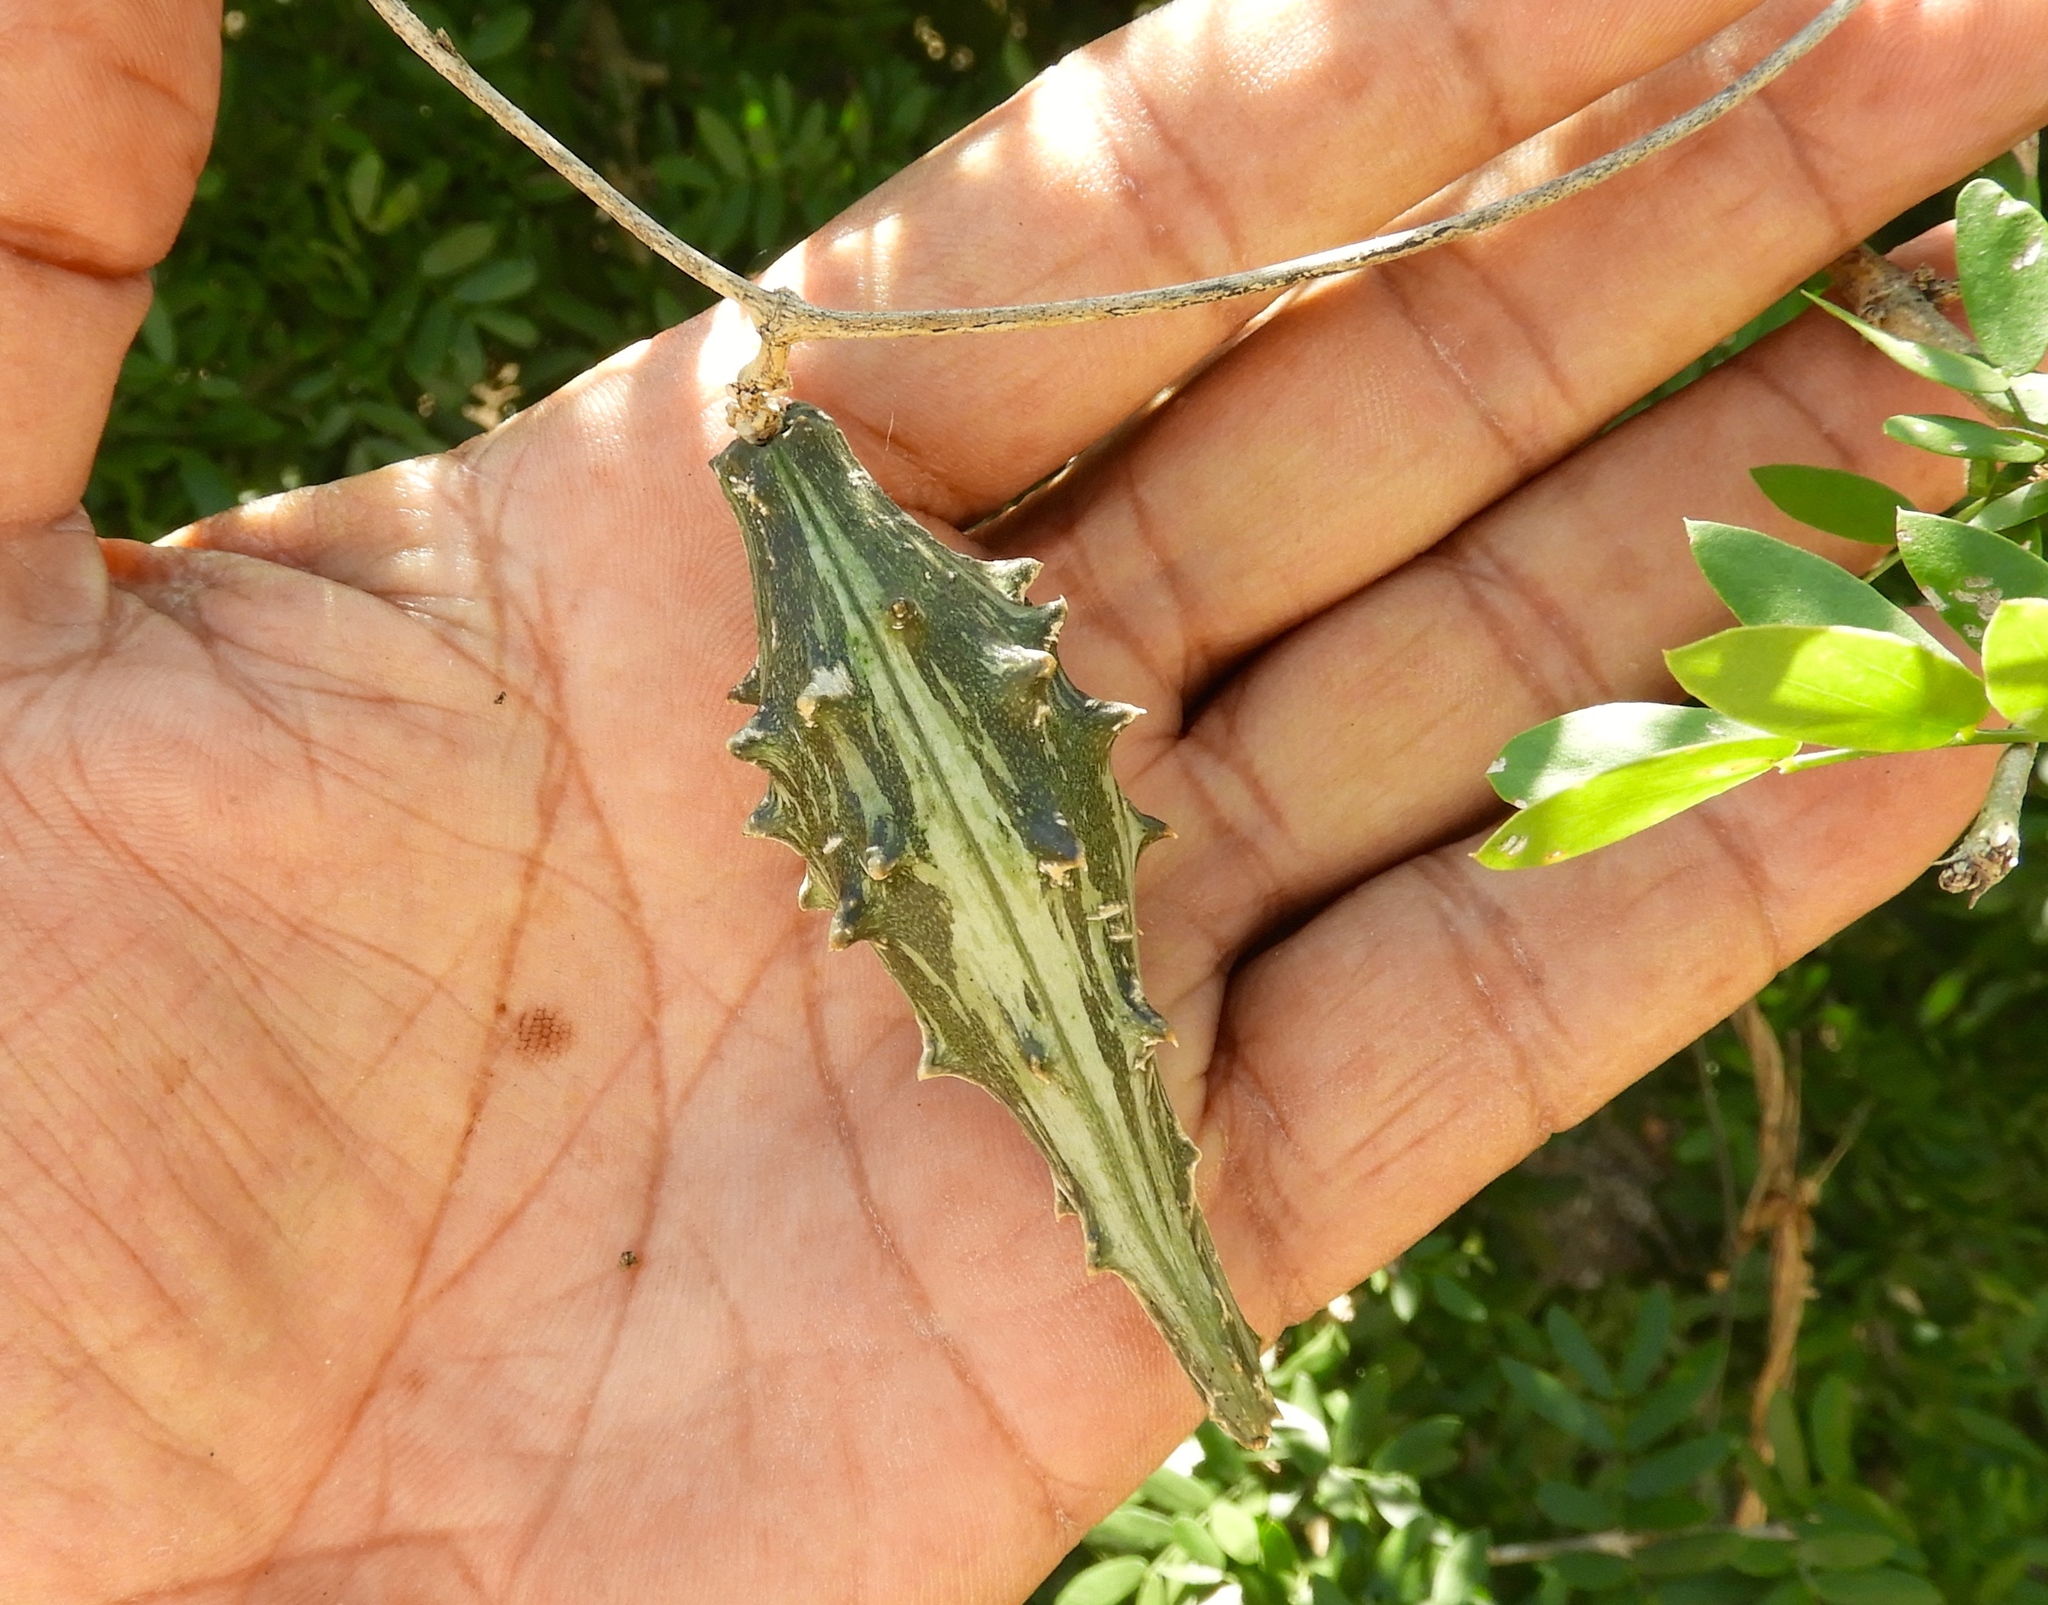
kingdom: Plantae
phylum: Tracheophyta
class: Magnoliopsida
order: Gentianales
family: Apocynaceae
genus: Dictyanthus
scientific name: Dictyanthus
